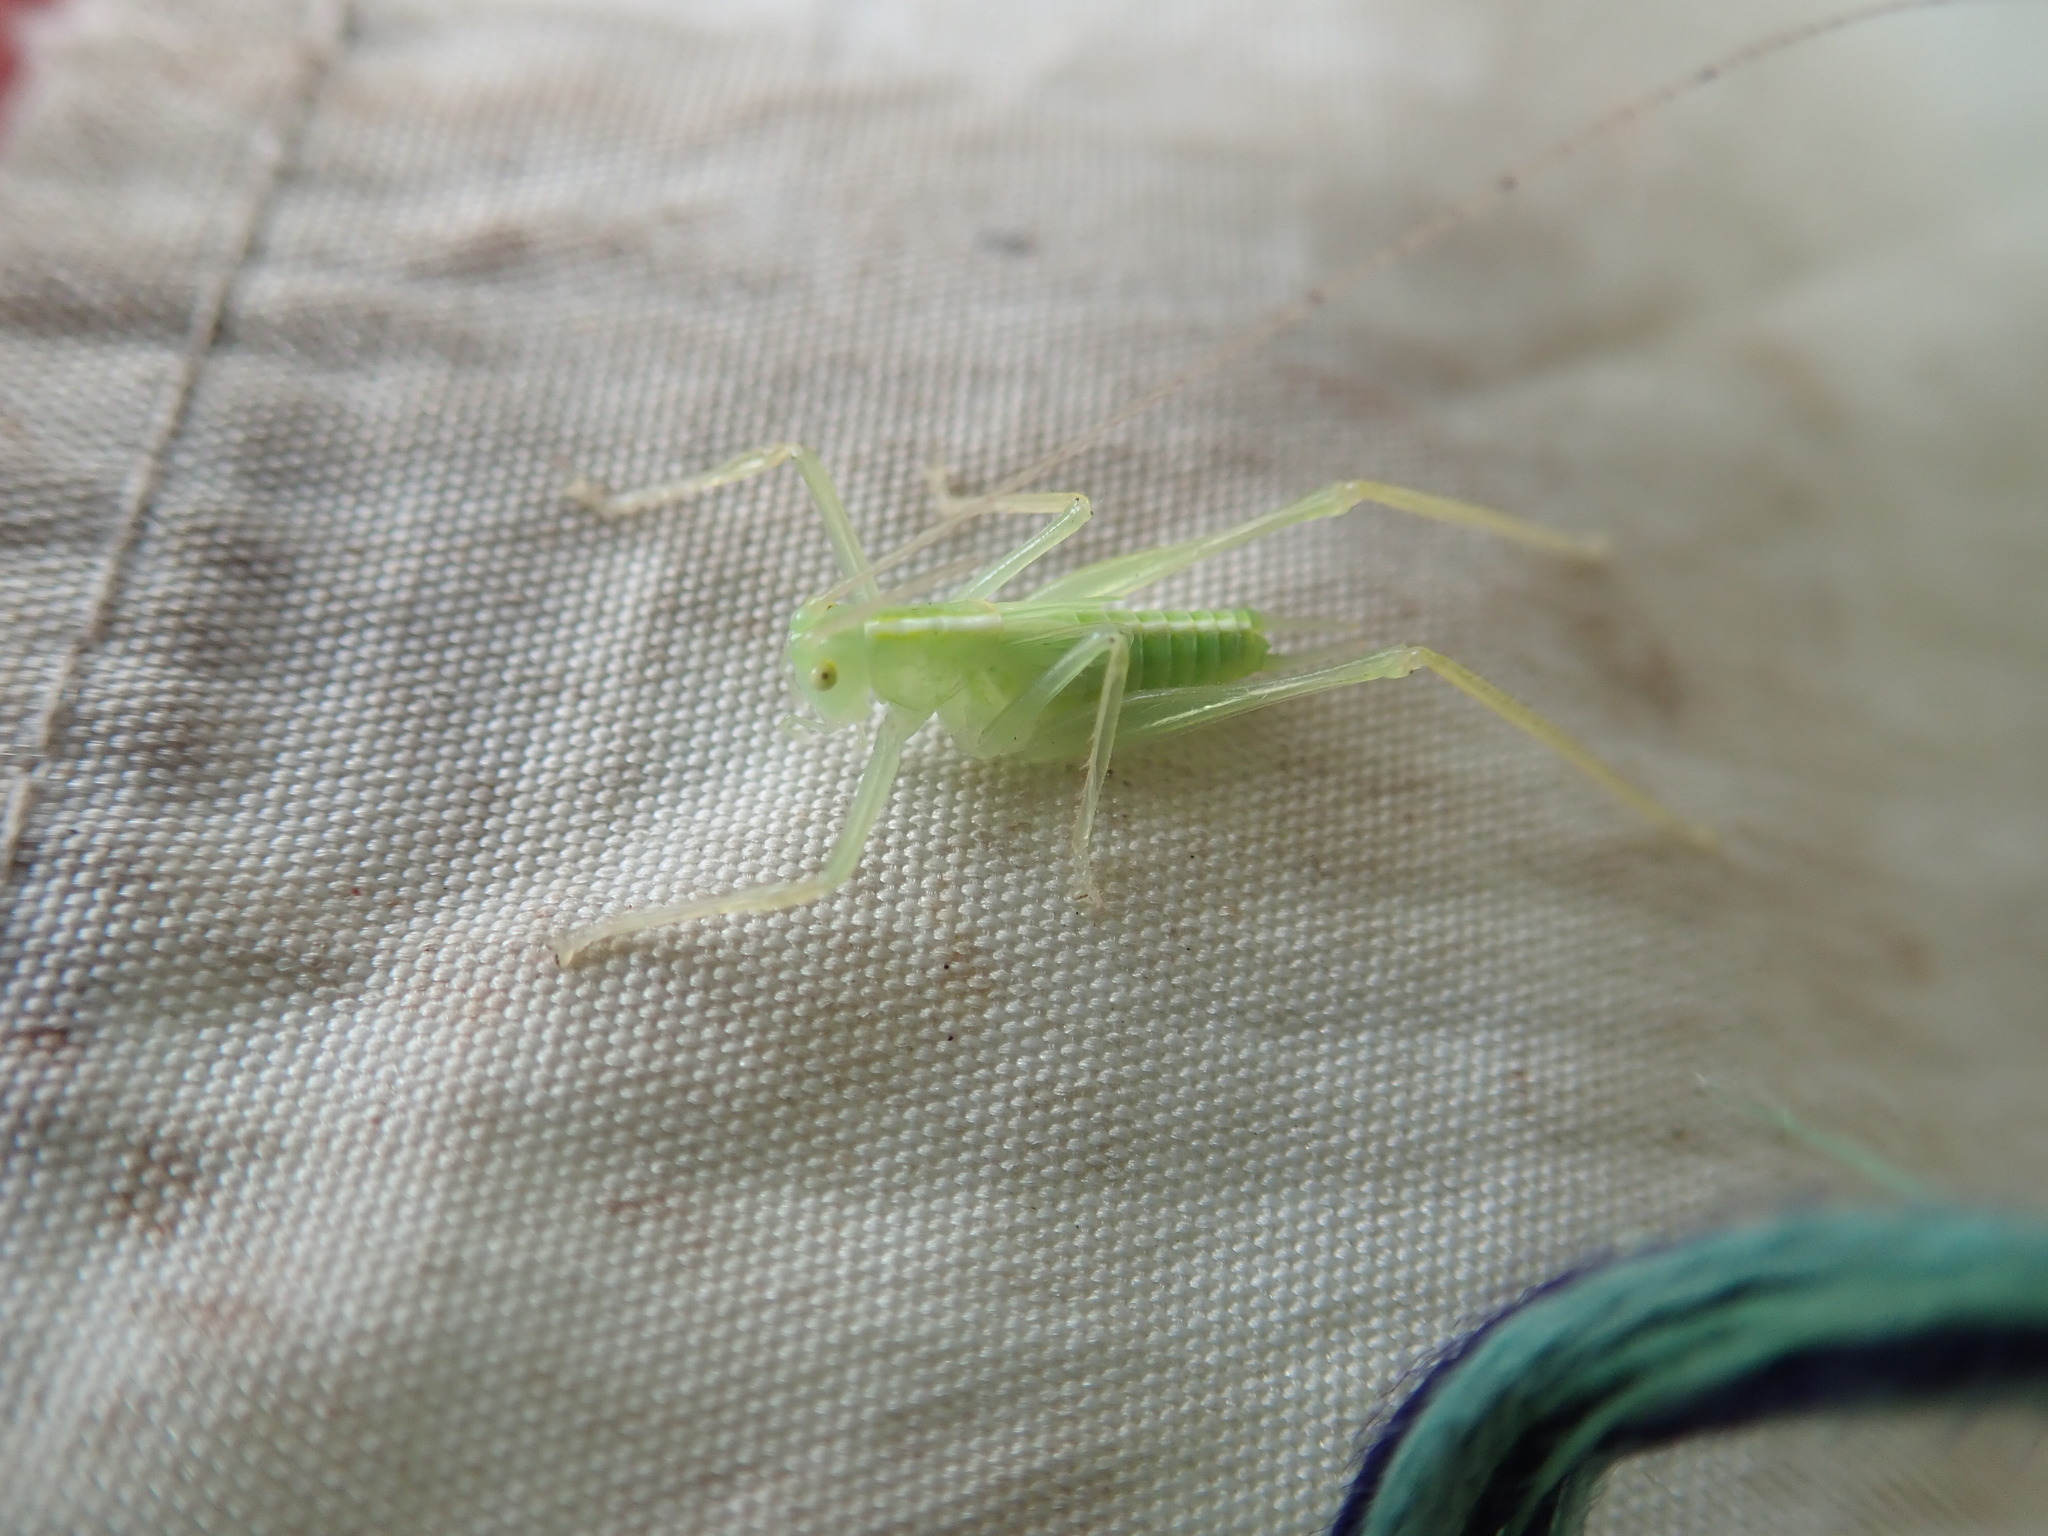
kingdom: Animalia
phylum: Arthropoda
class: Insecta
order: Orthoptera
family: Tettigoniidae
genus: Meconema
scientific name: Meconema thalassinum
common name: Oak bush-cricket
